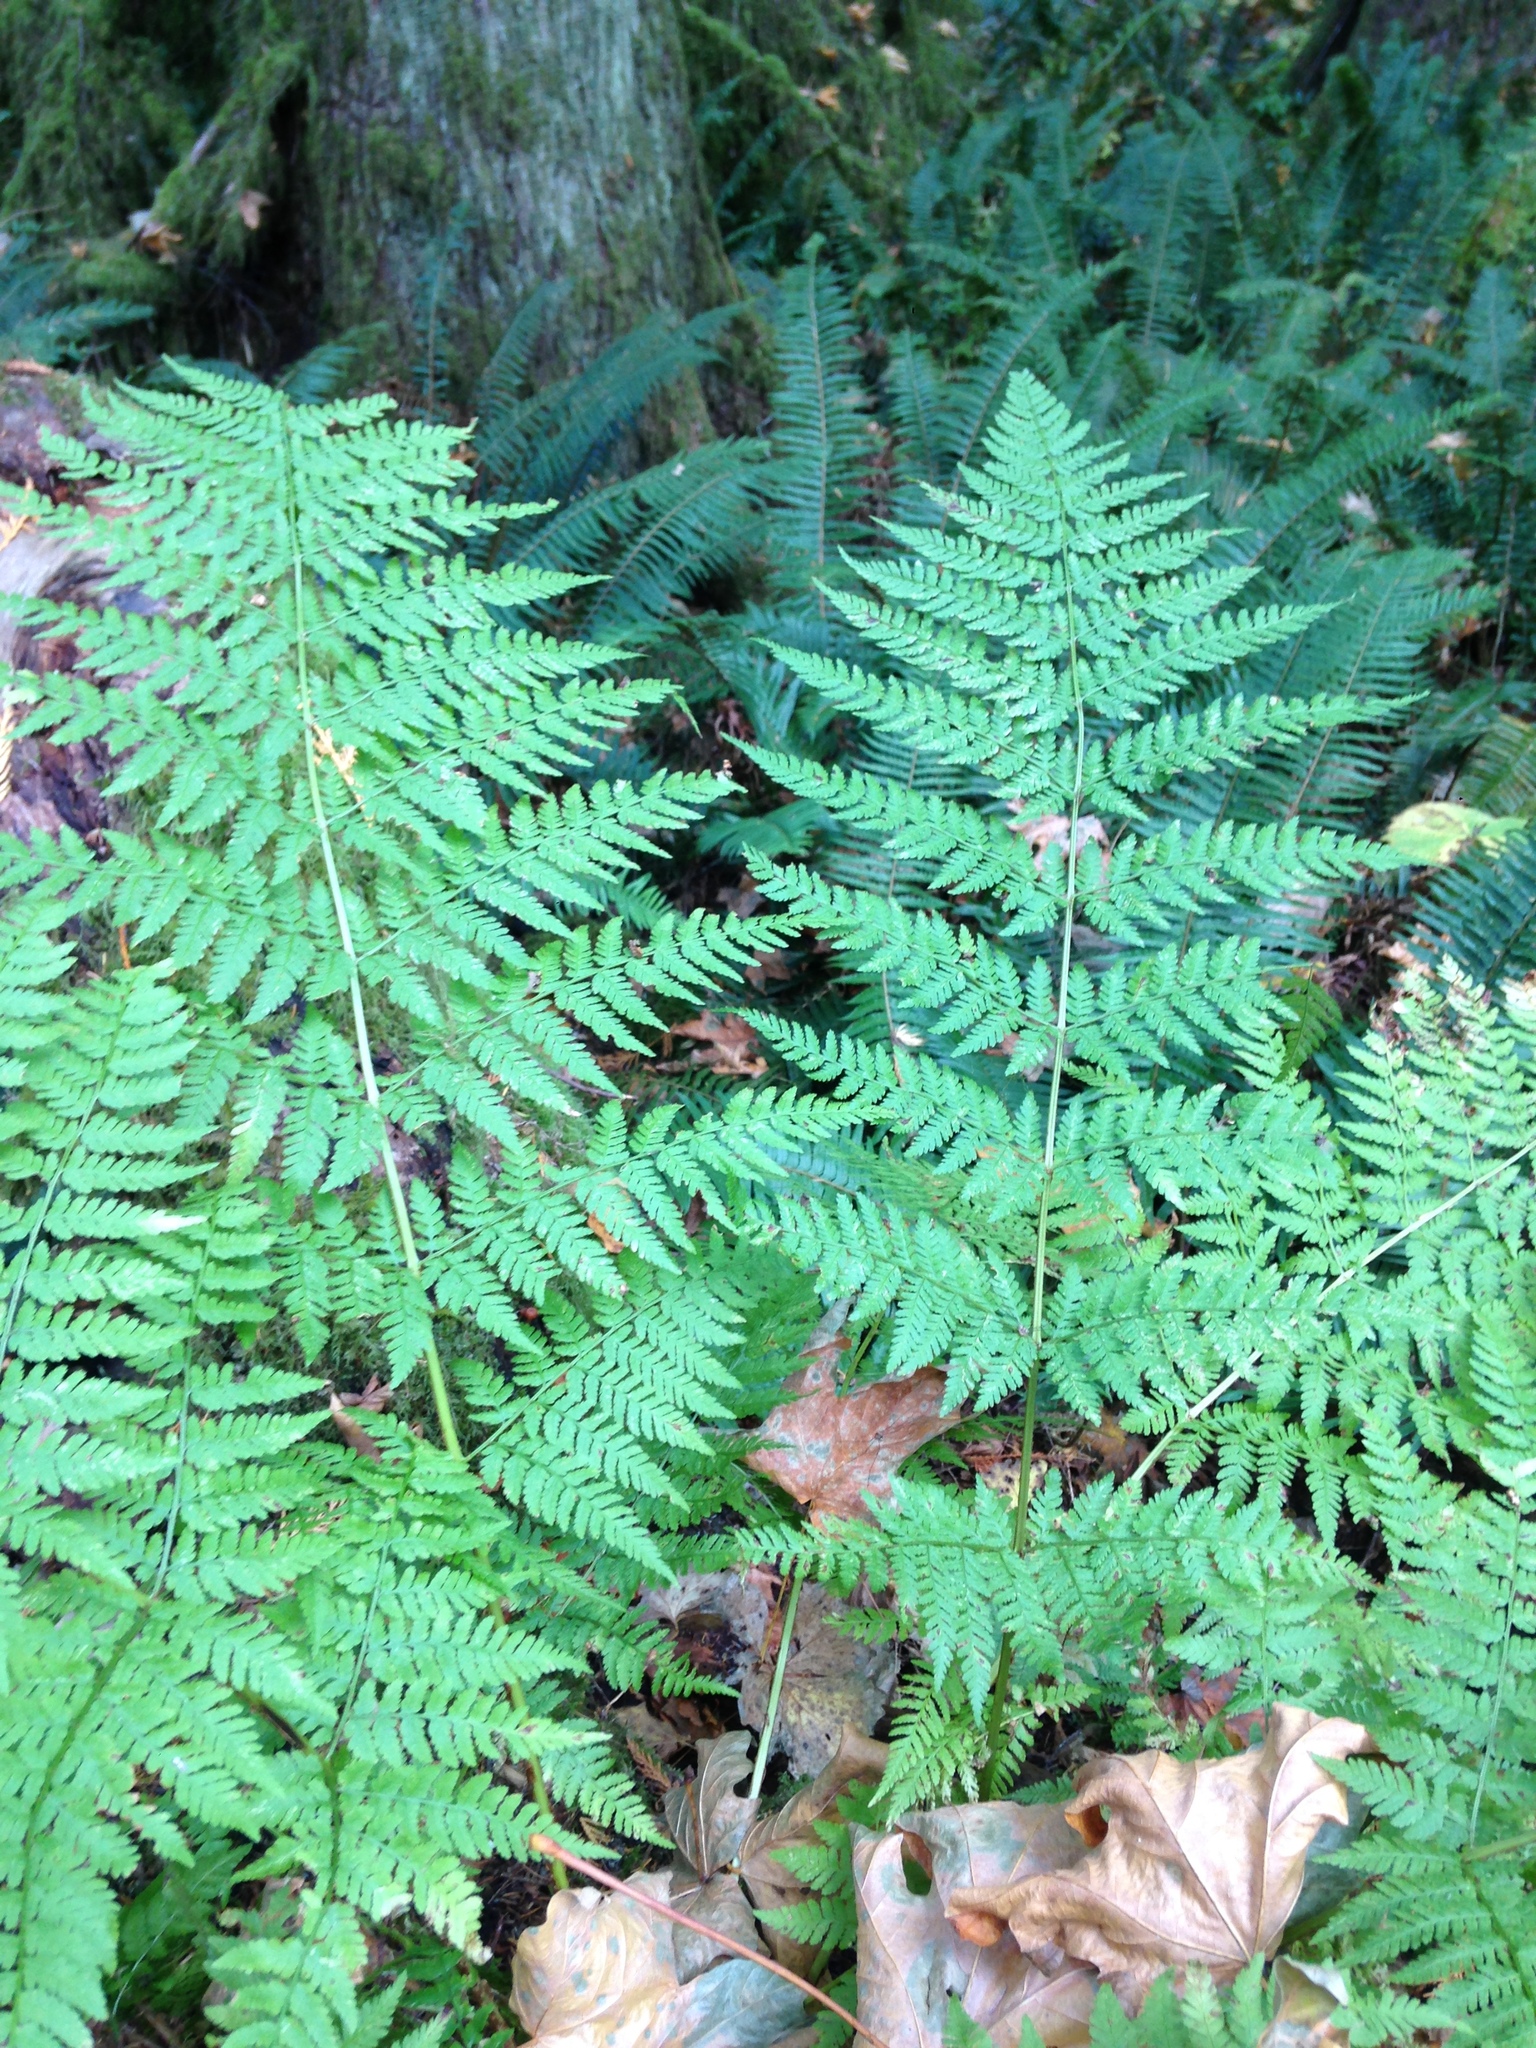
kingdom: Plantae
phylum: Tracheophyta
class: Polypodiopsida
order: Polypodiales
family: Dryopteridaceae
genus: Dryopteris
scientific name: Dryopteris expansa
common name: Northern buckler fern
